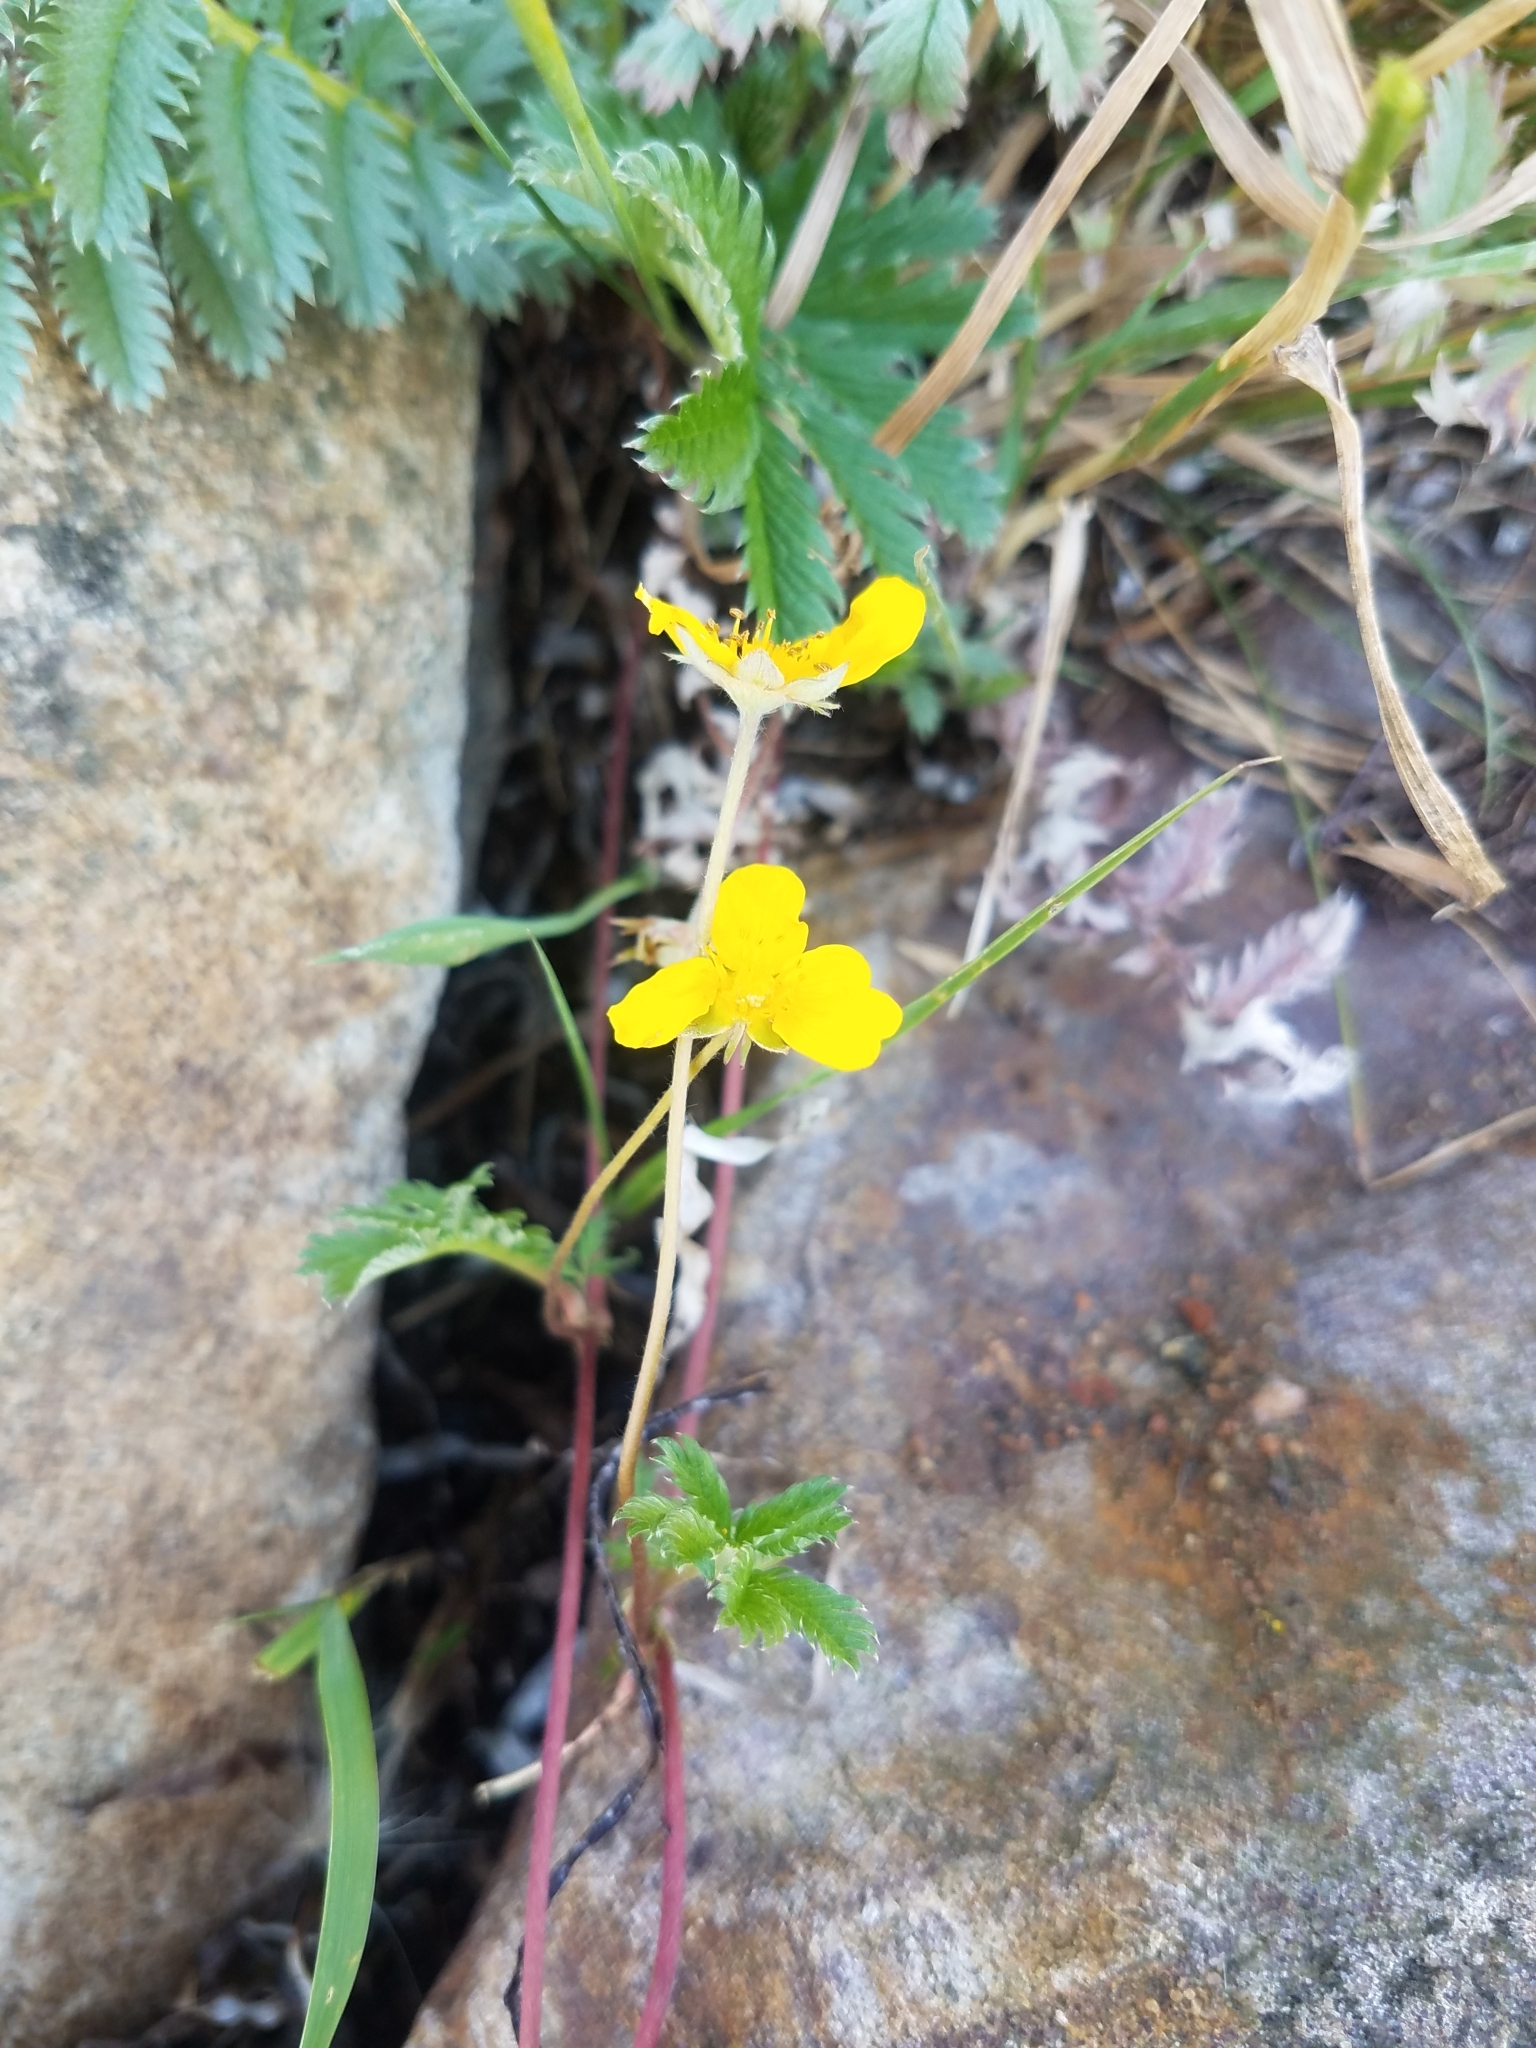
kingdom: Plantae
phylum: Tracheophyta
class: Magnoliopsida
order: Rosales
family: Rosaceae
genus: Argentina
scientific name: Argentina anserina
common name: Common silverweed
